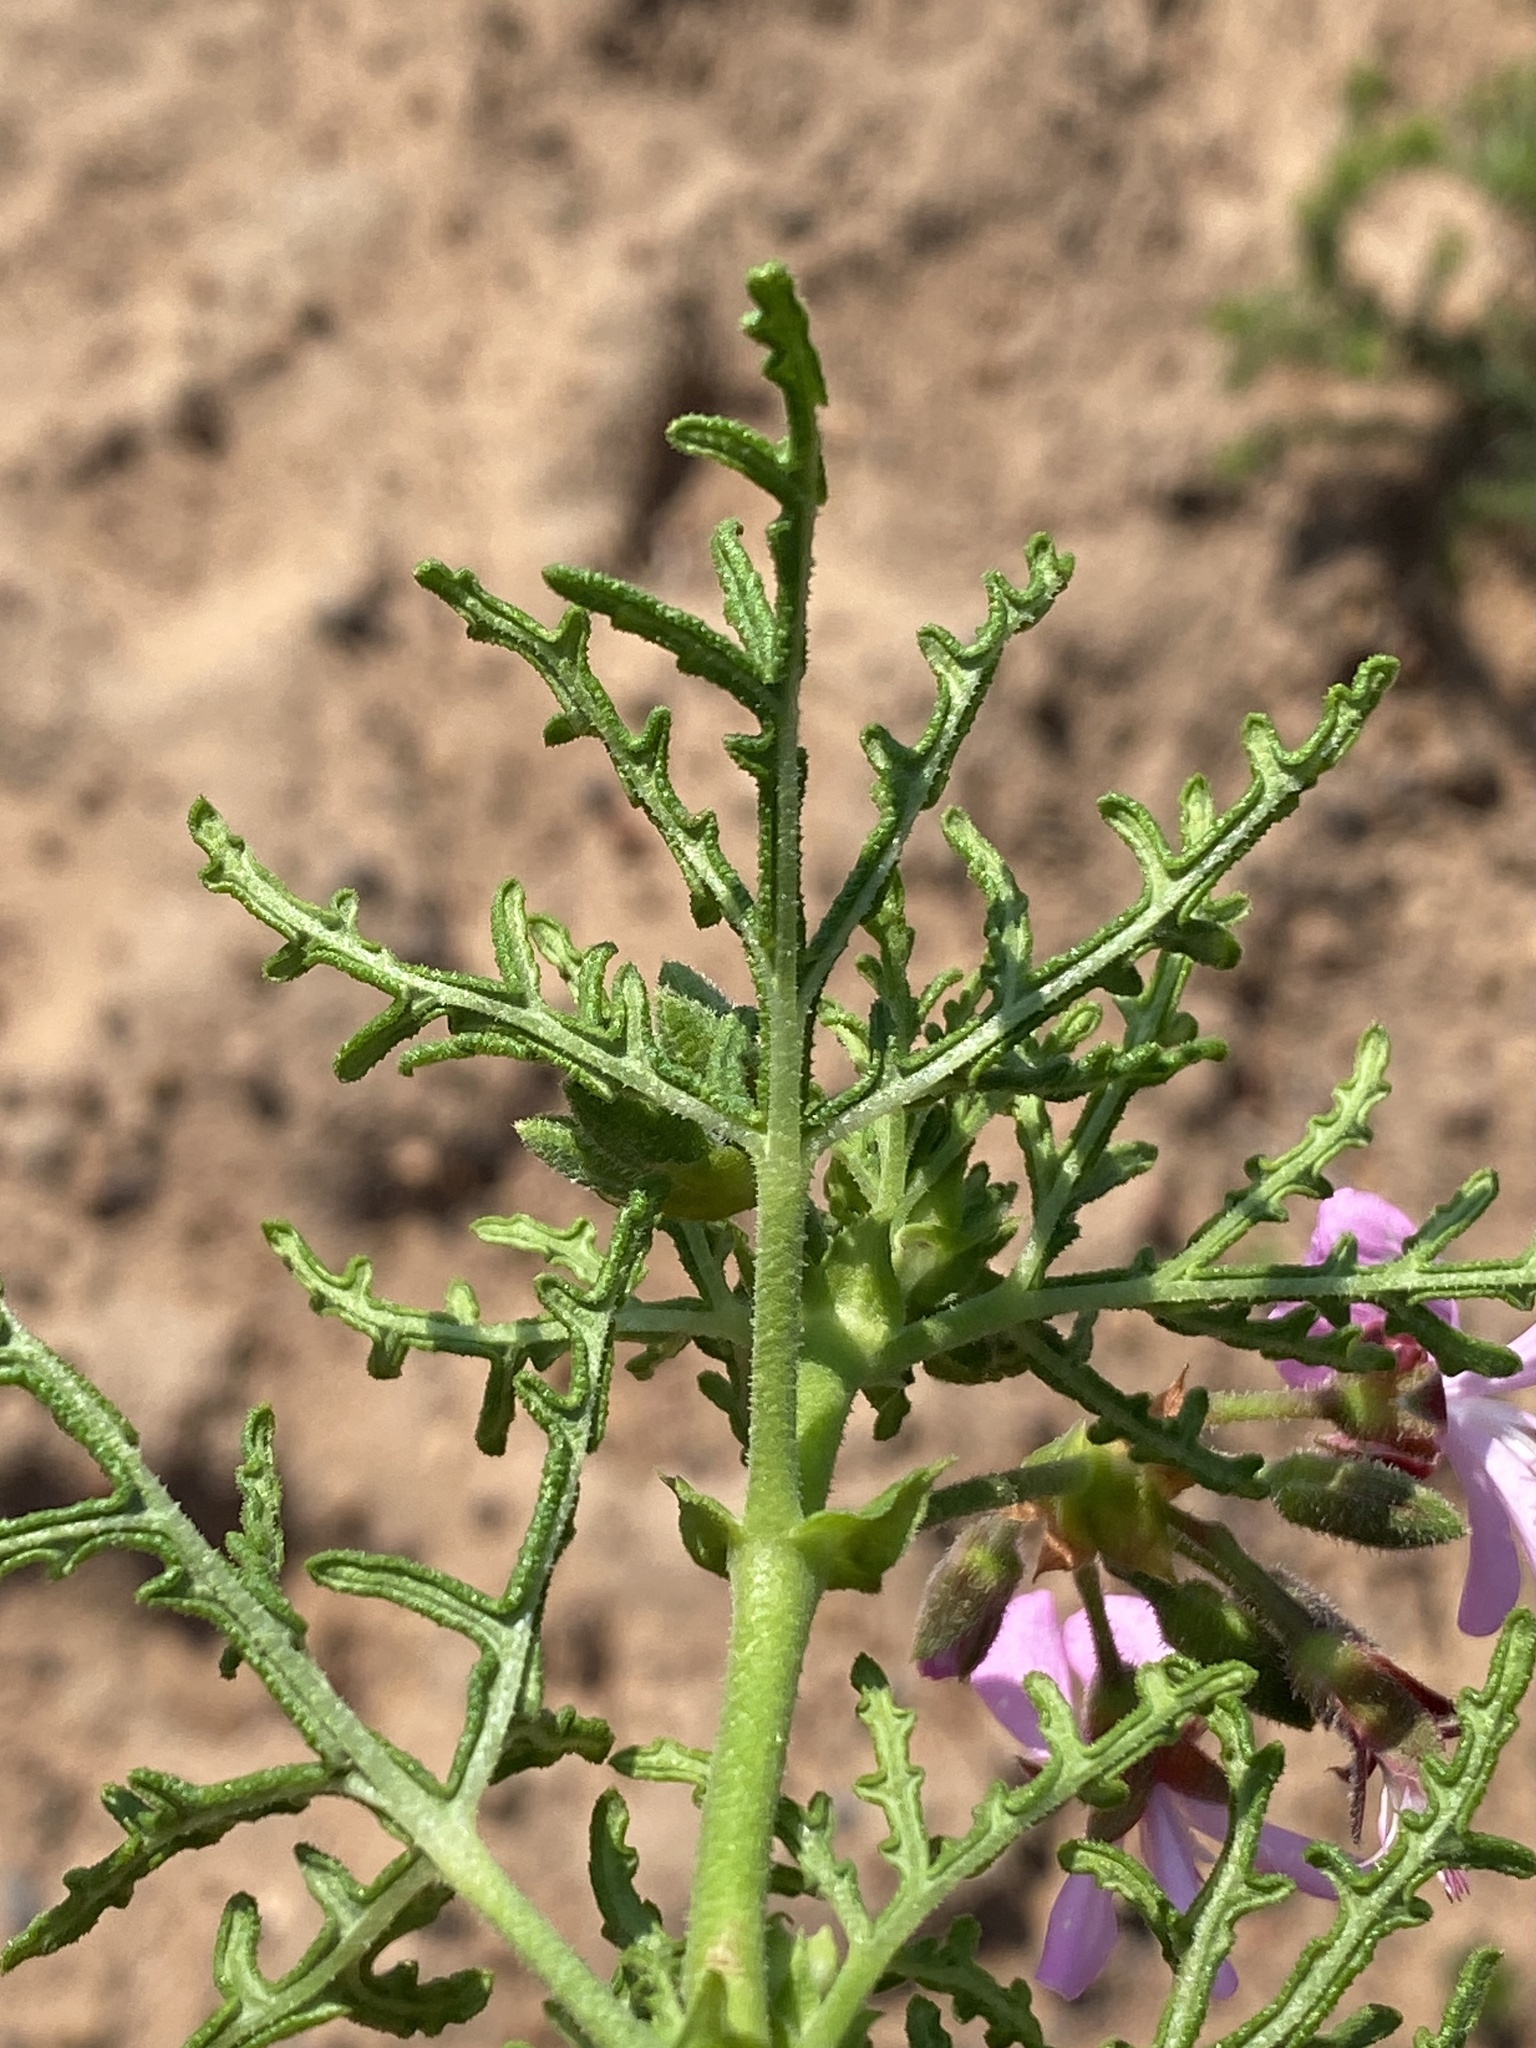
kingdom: Plantae
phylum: Tracheophyta
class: Magnoliopsida
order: Geraniales
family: Geraniaceae
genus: Pelargonium
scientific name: Pelargonium radens
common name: Rasp-leaf pelargonium
